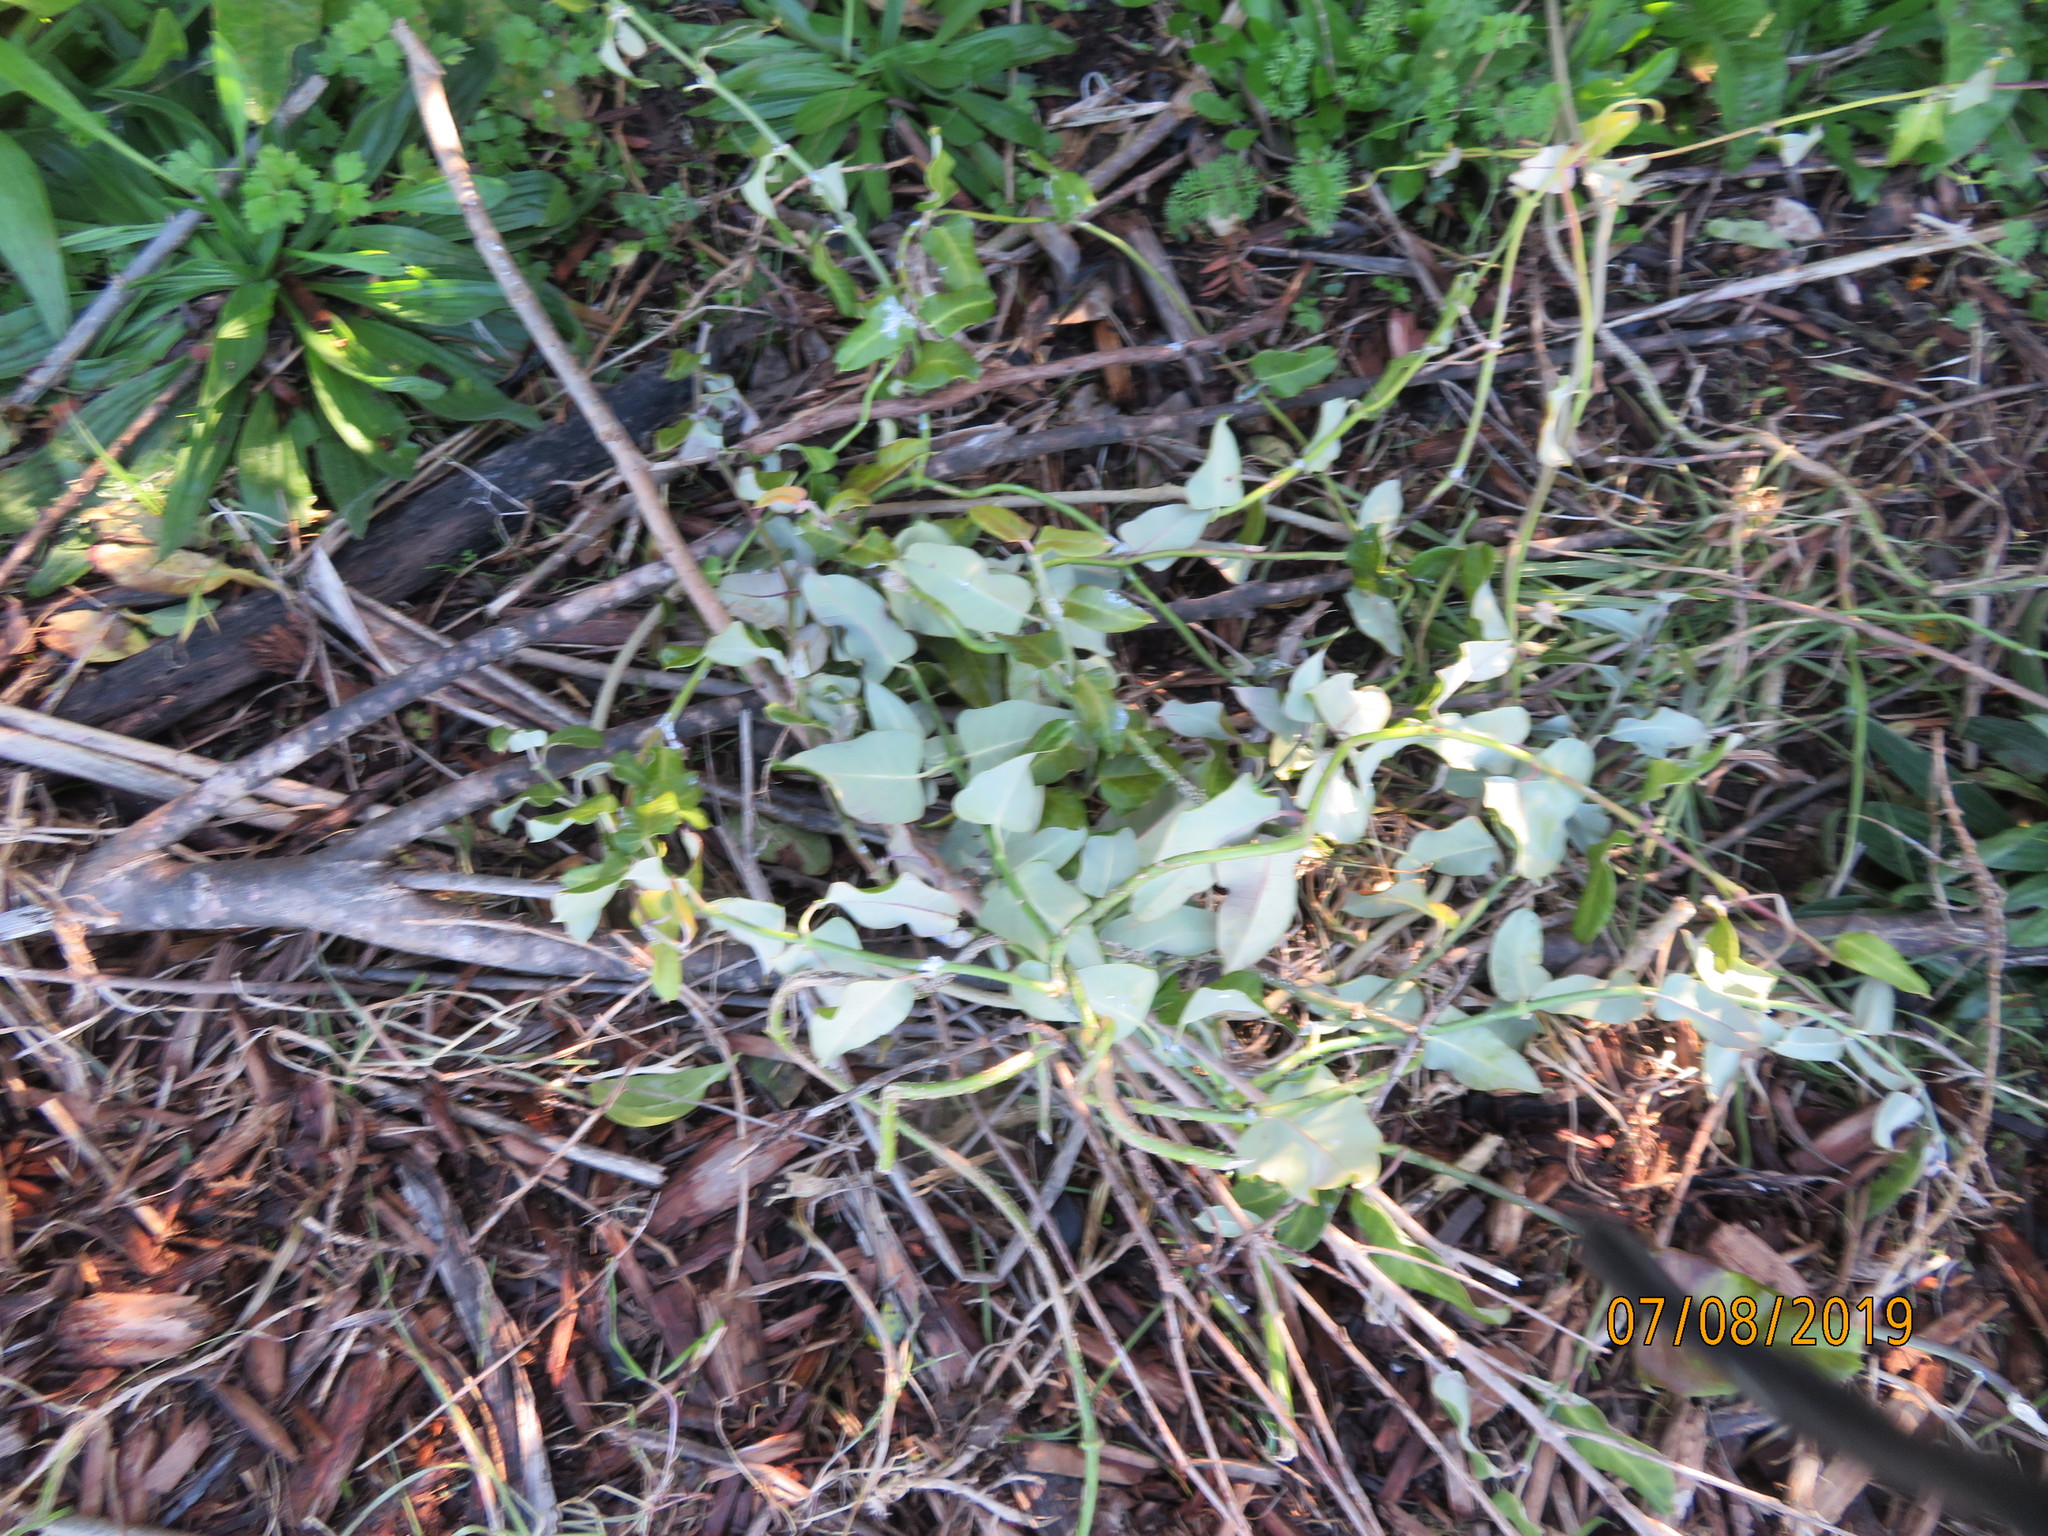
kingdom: Plantae
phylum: Tracheophyta
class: Magnoliopsida
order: Gentianales
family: Apocynaceae
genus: Araujia
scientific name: Araujia sericifera
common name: White bladderflower
